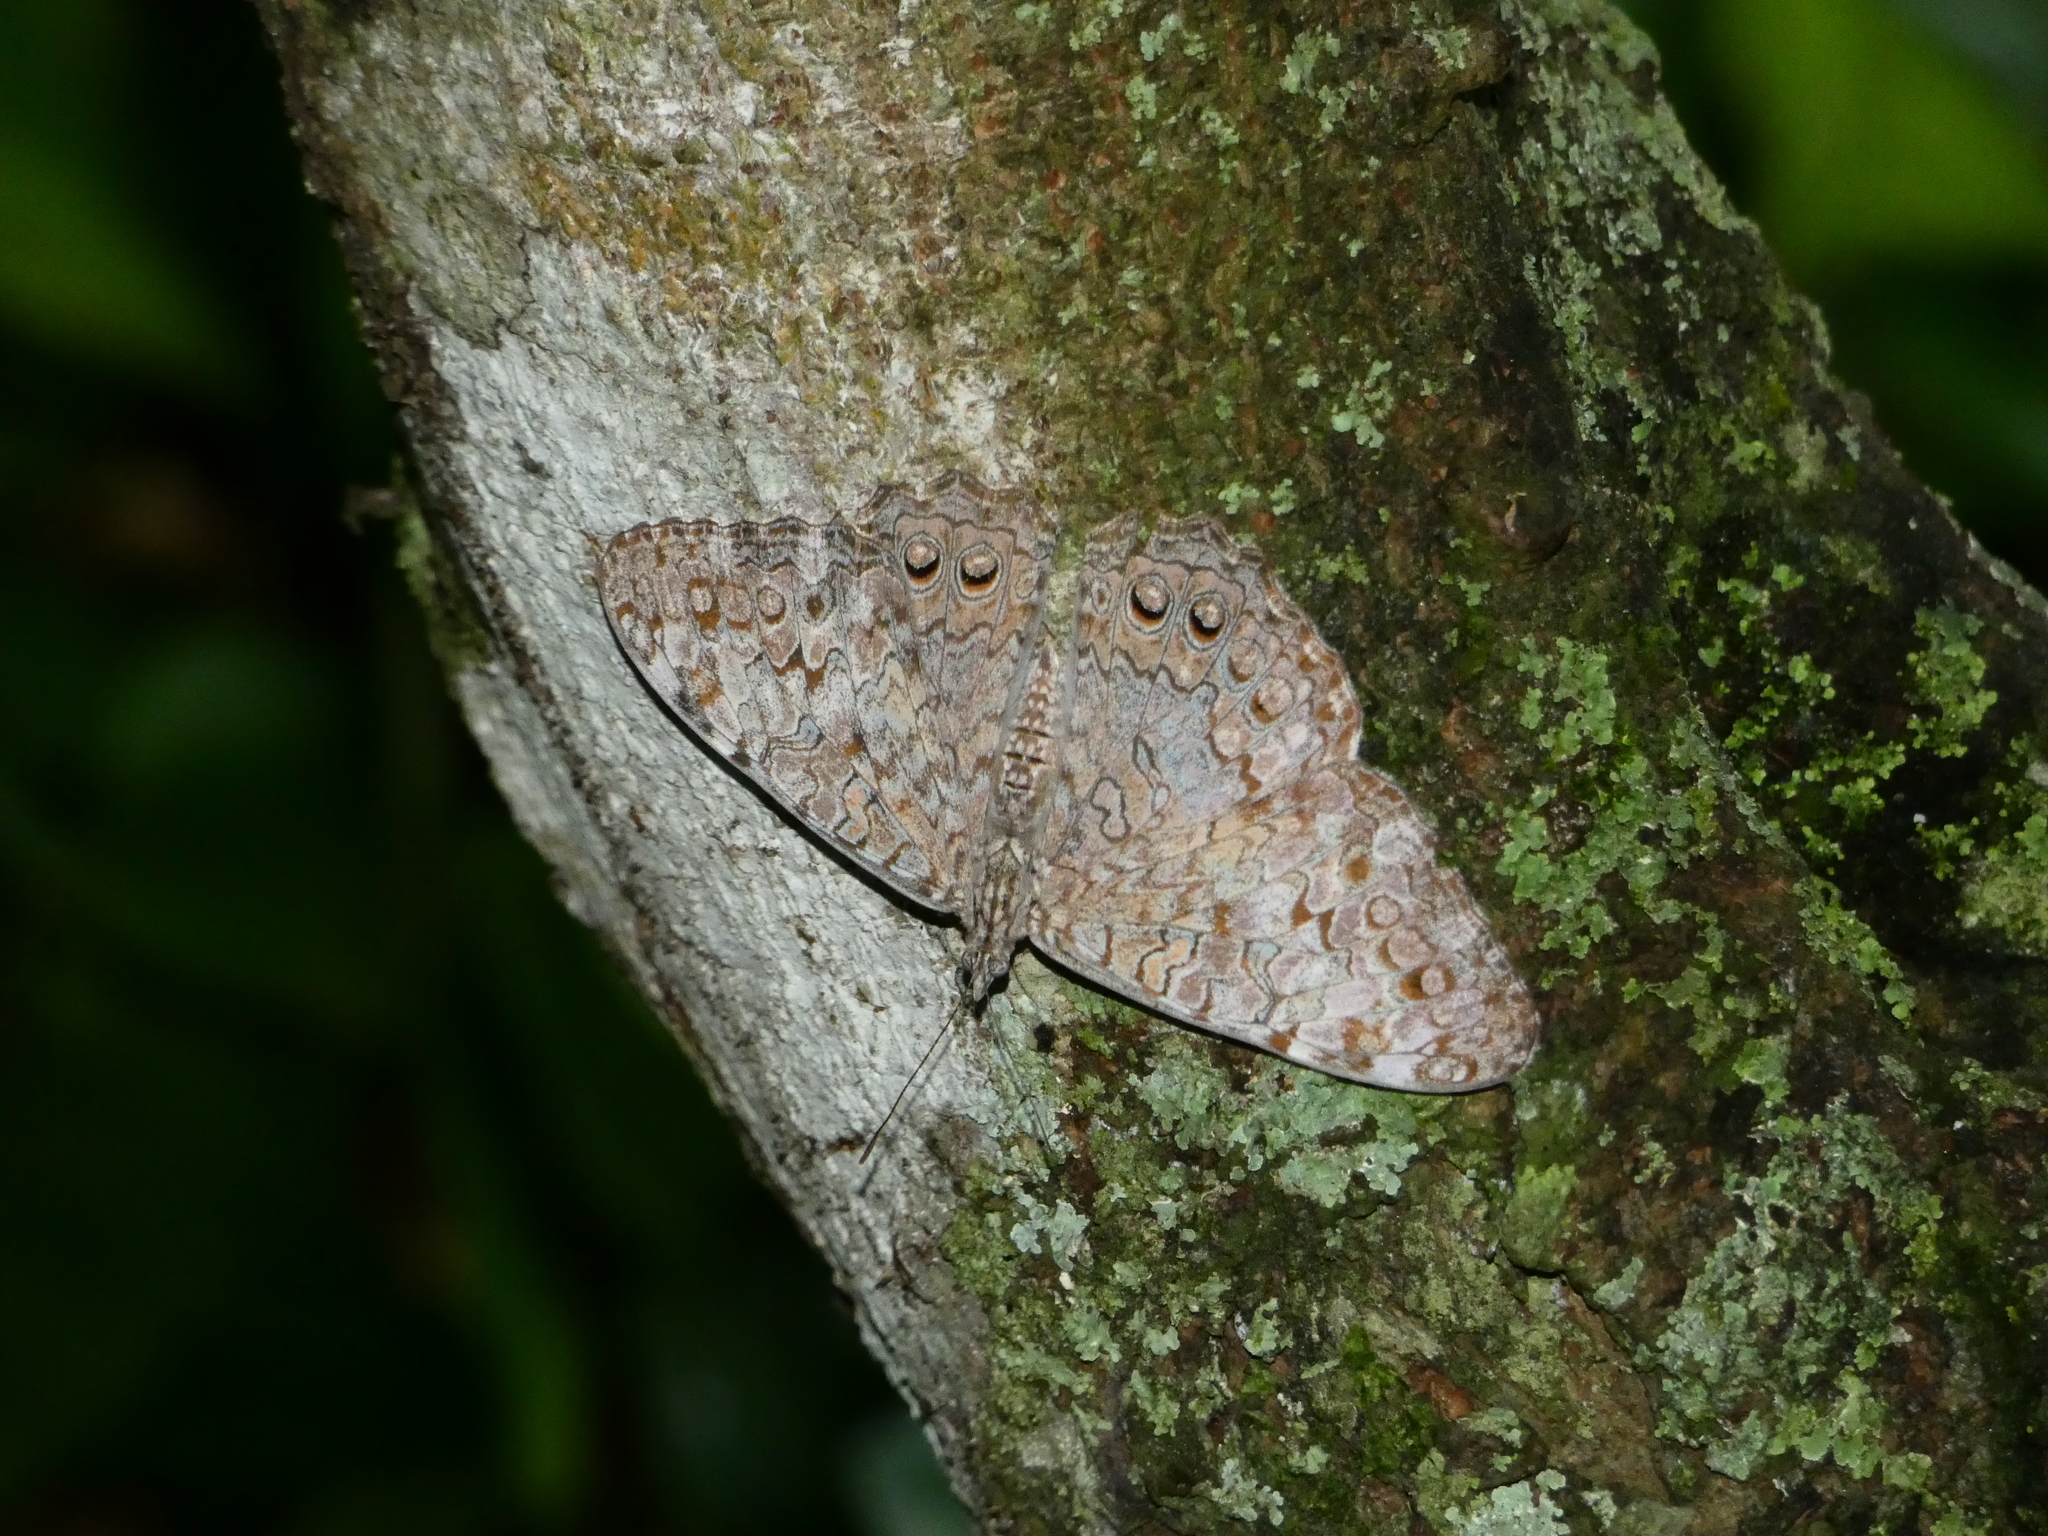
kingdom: Animalia
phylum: Arthropoda
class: Insecta
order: Lepidoptera
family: Nymphalidae
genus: Hamadryas
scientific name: Hamadryas februa
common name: Gray cracker
